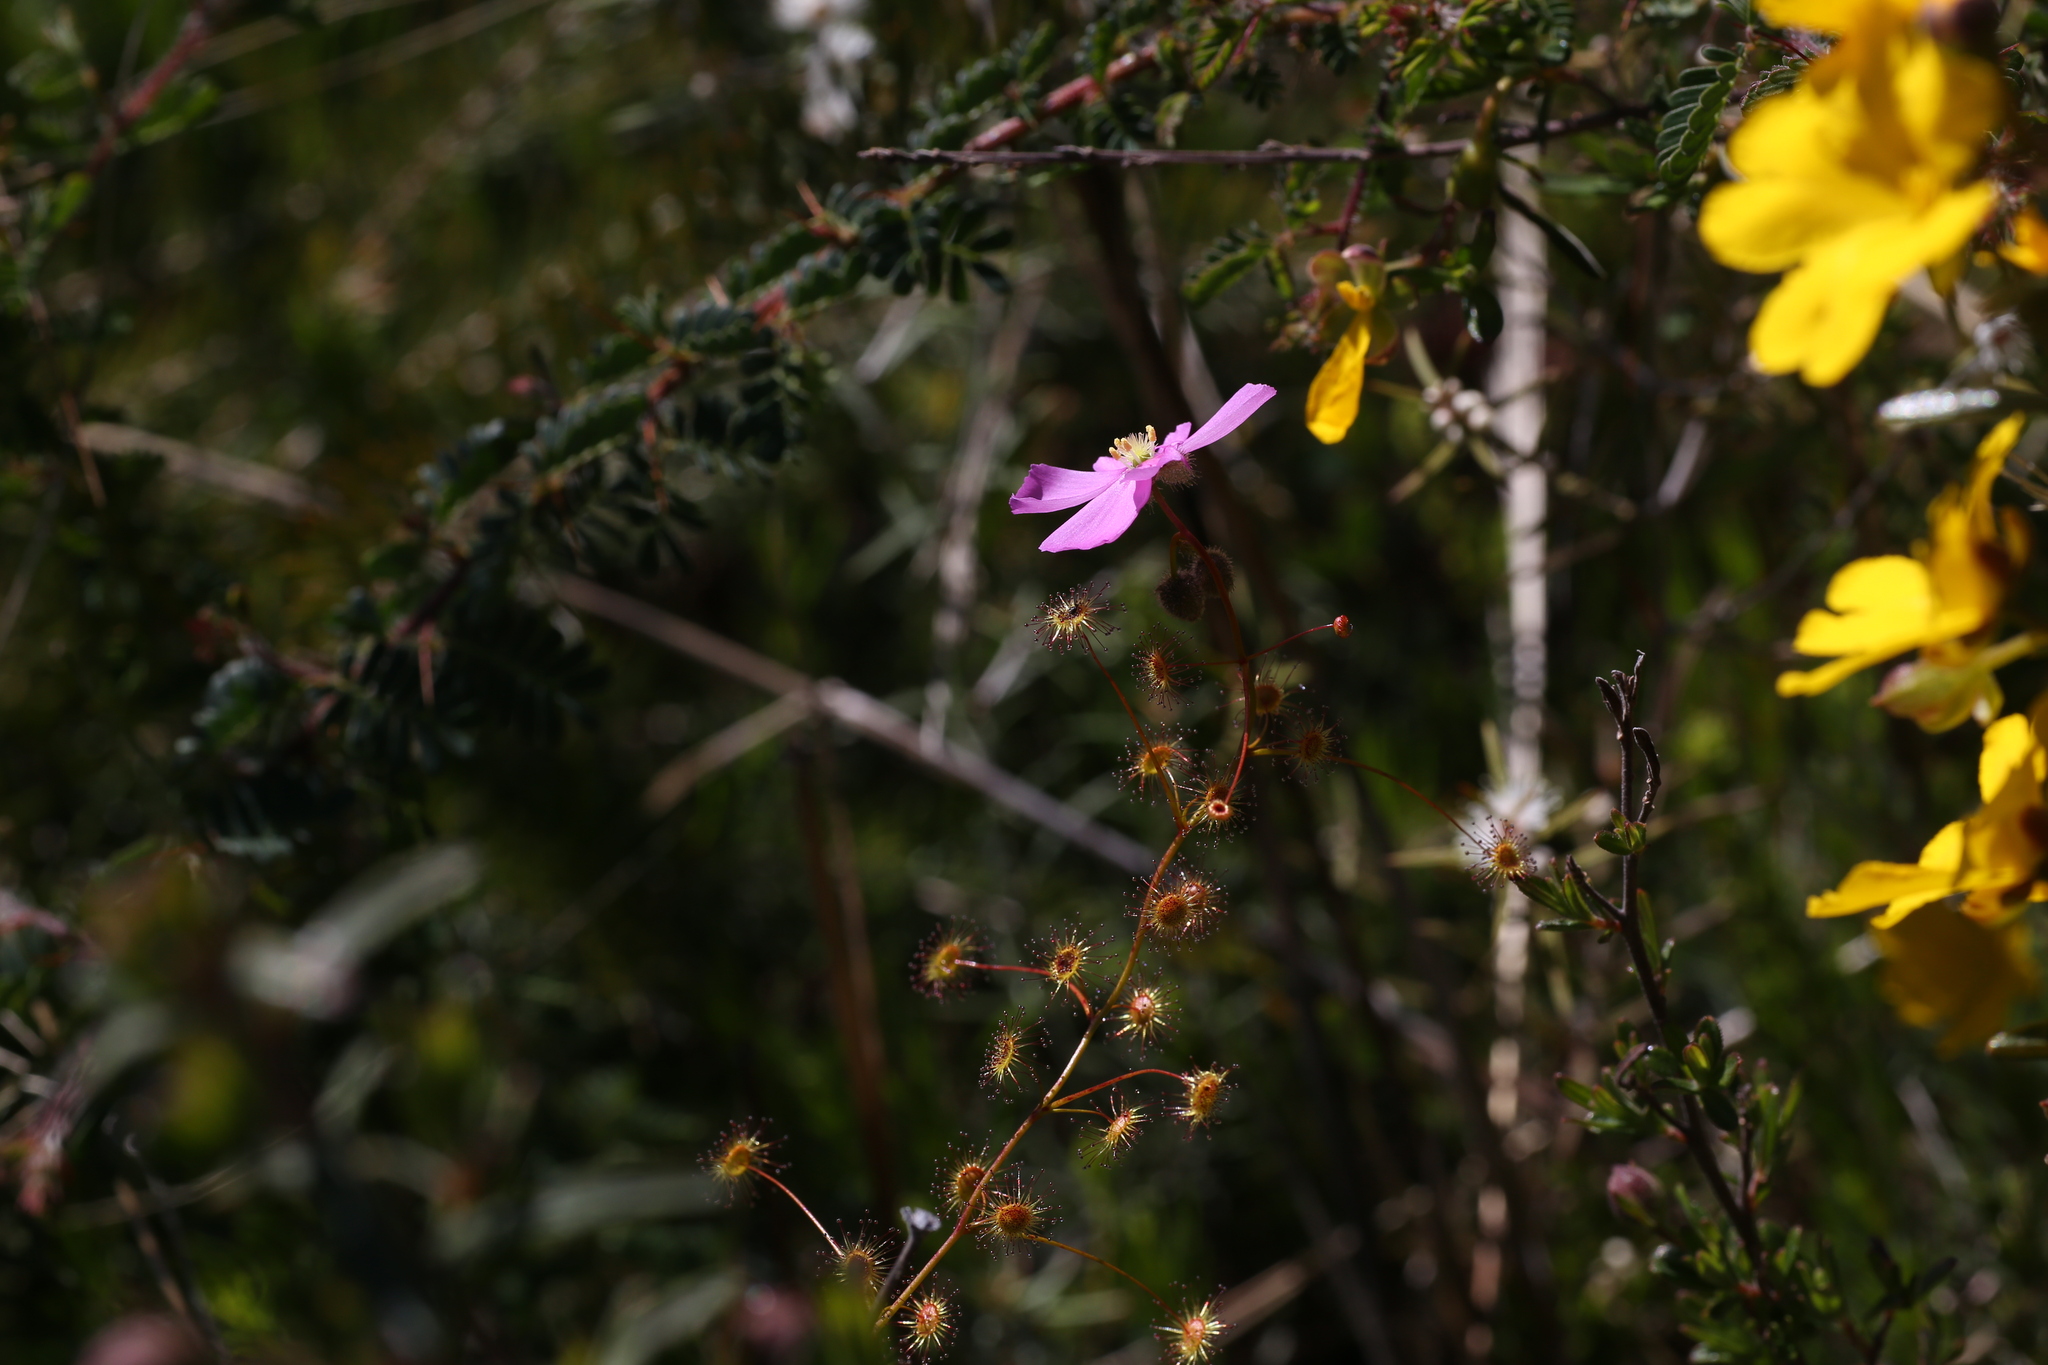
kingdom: Plantae
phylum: Tracheophyta
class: Magnoliopsida
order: Caryophyllales
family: Droseraceae
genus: Drosera
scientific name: Drosera
